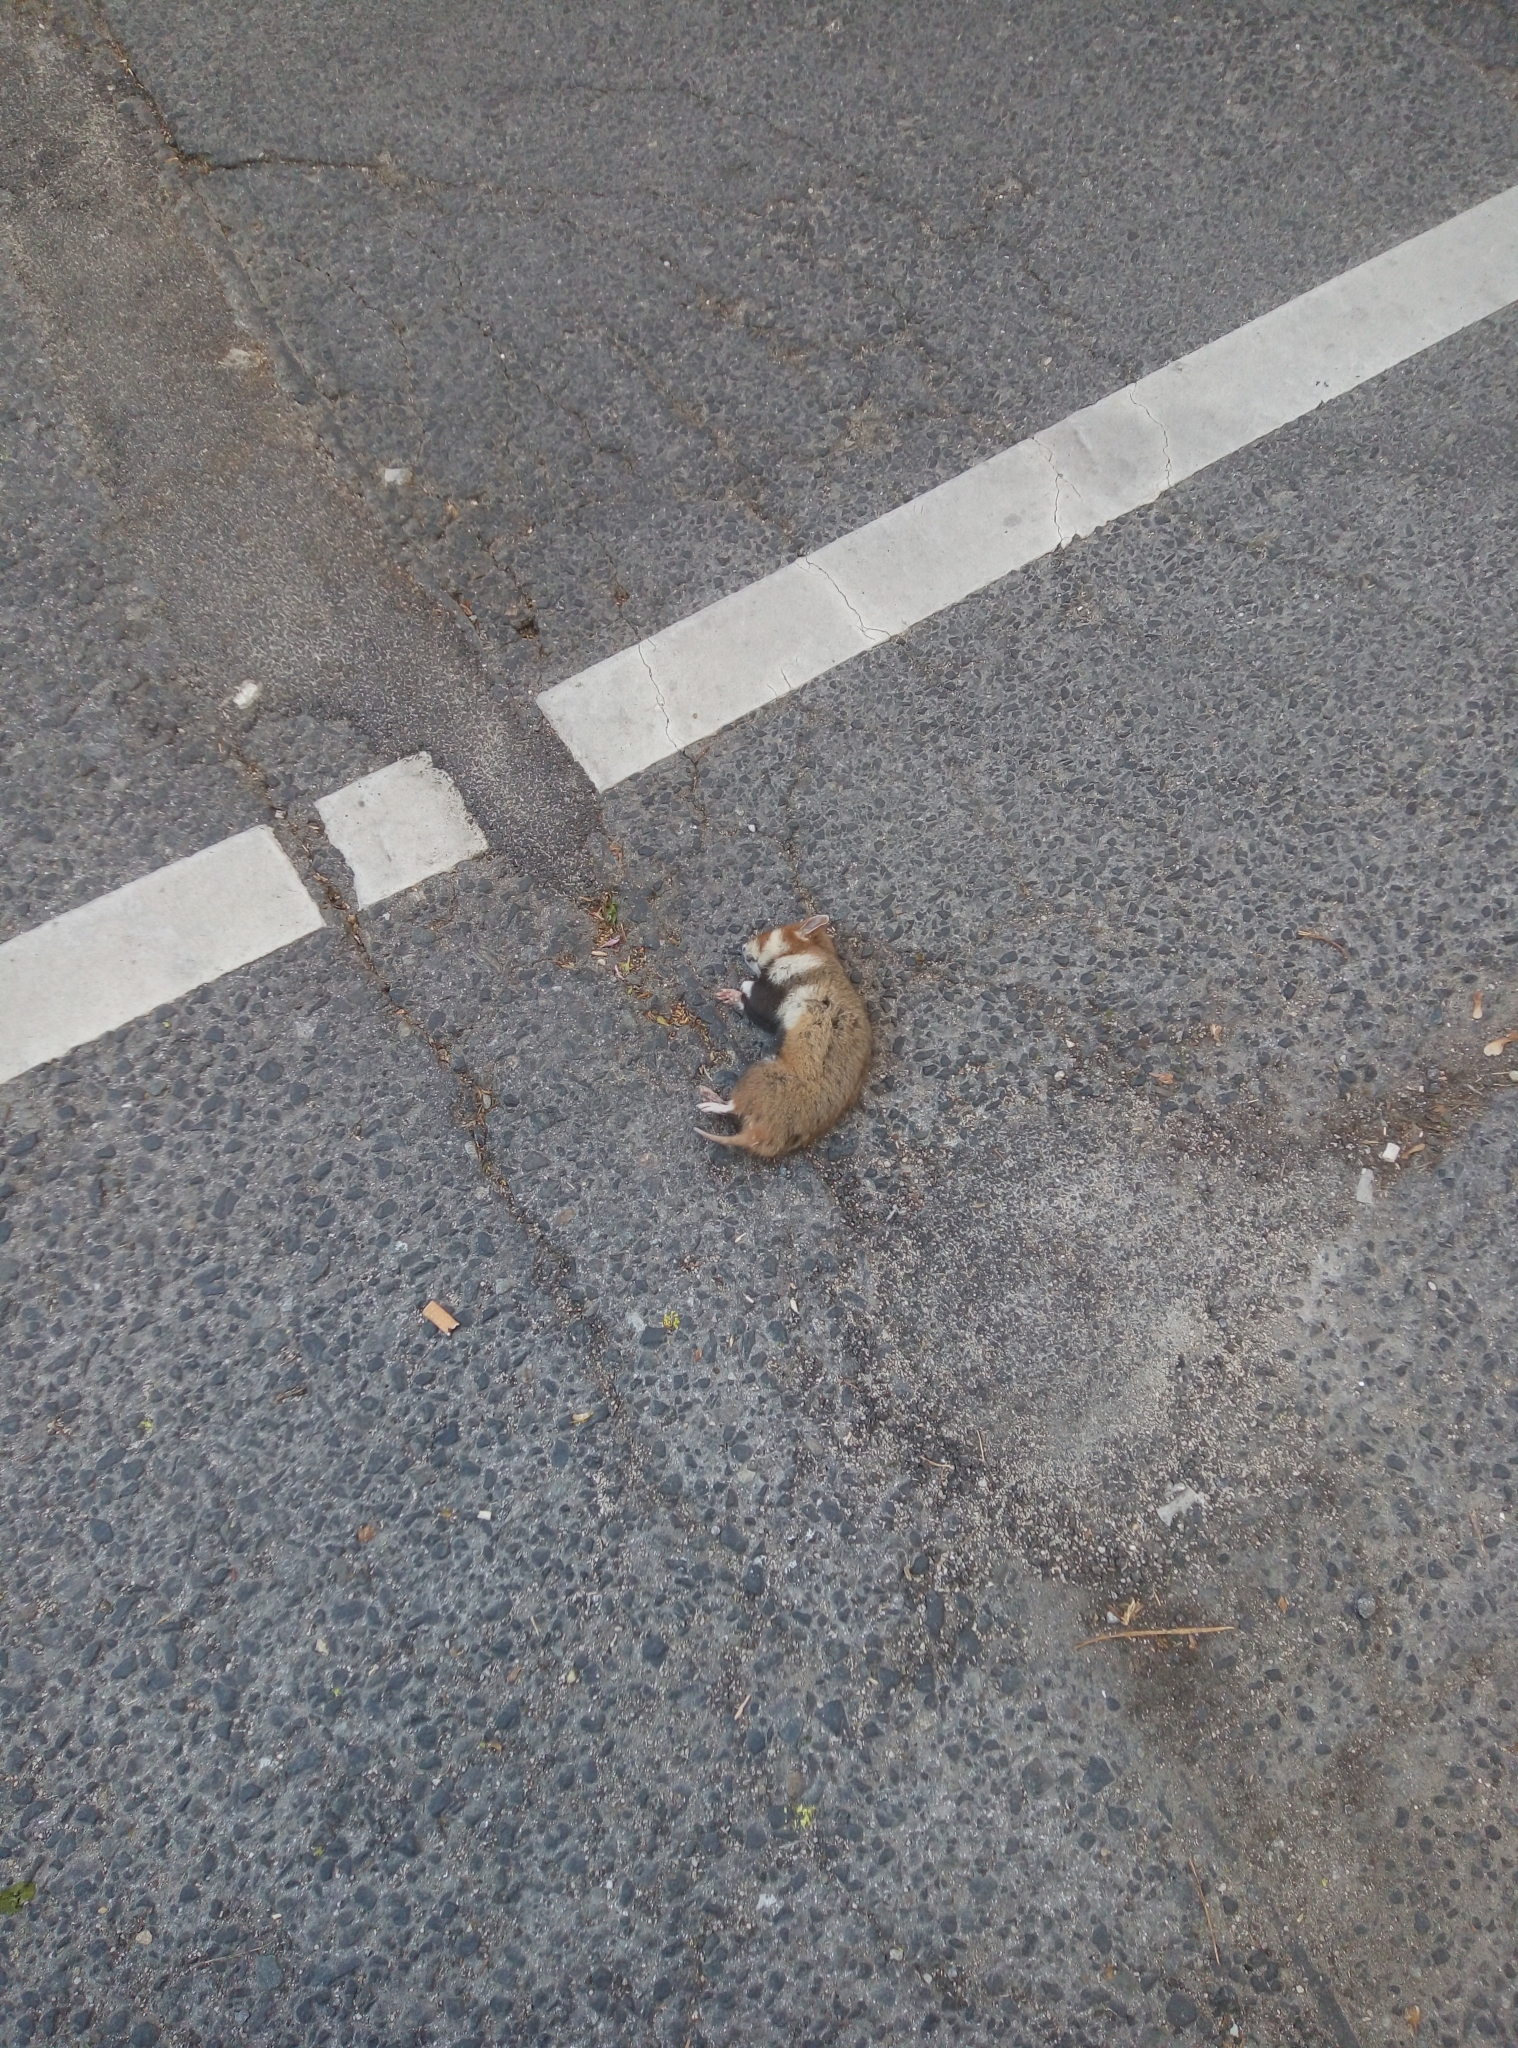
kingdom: Animalia
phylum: Chordata
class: Mammalia
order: Rodentia
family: Cricetidae
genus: Cricetus
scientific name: Cricetus cricetus
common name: Common hamster
